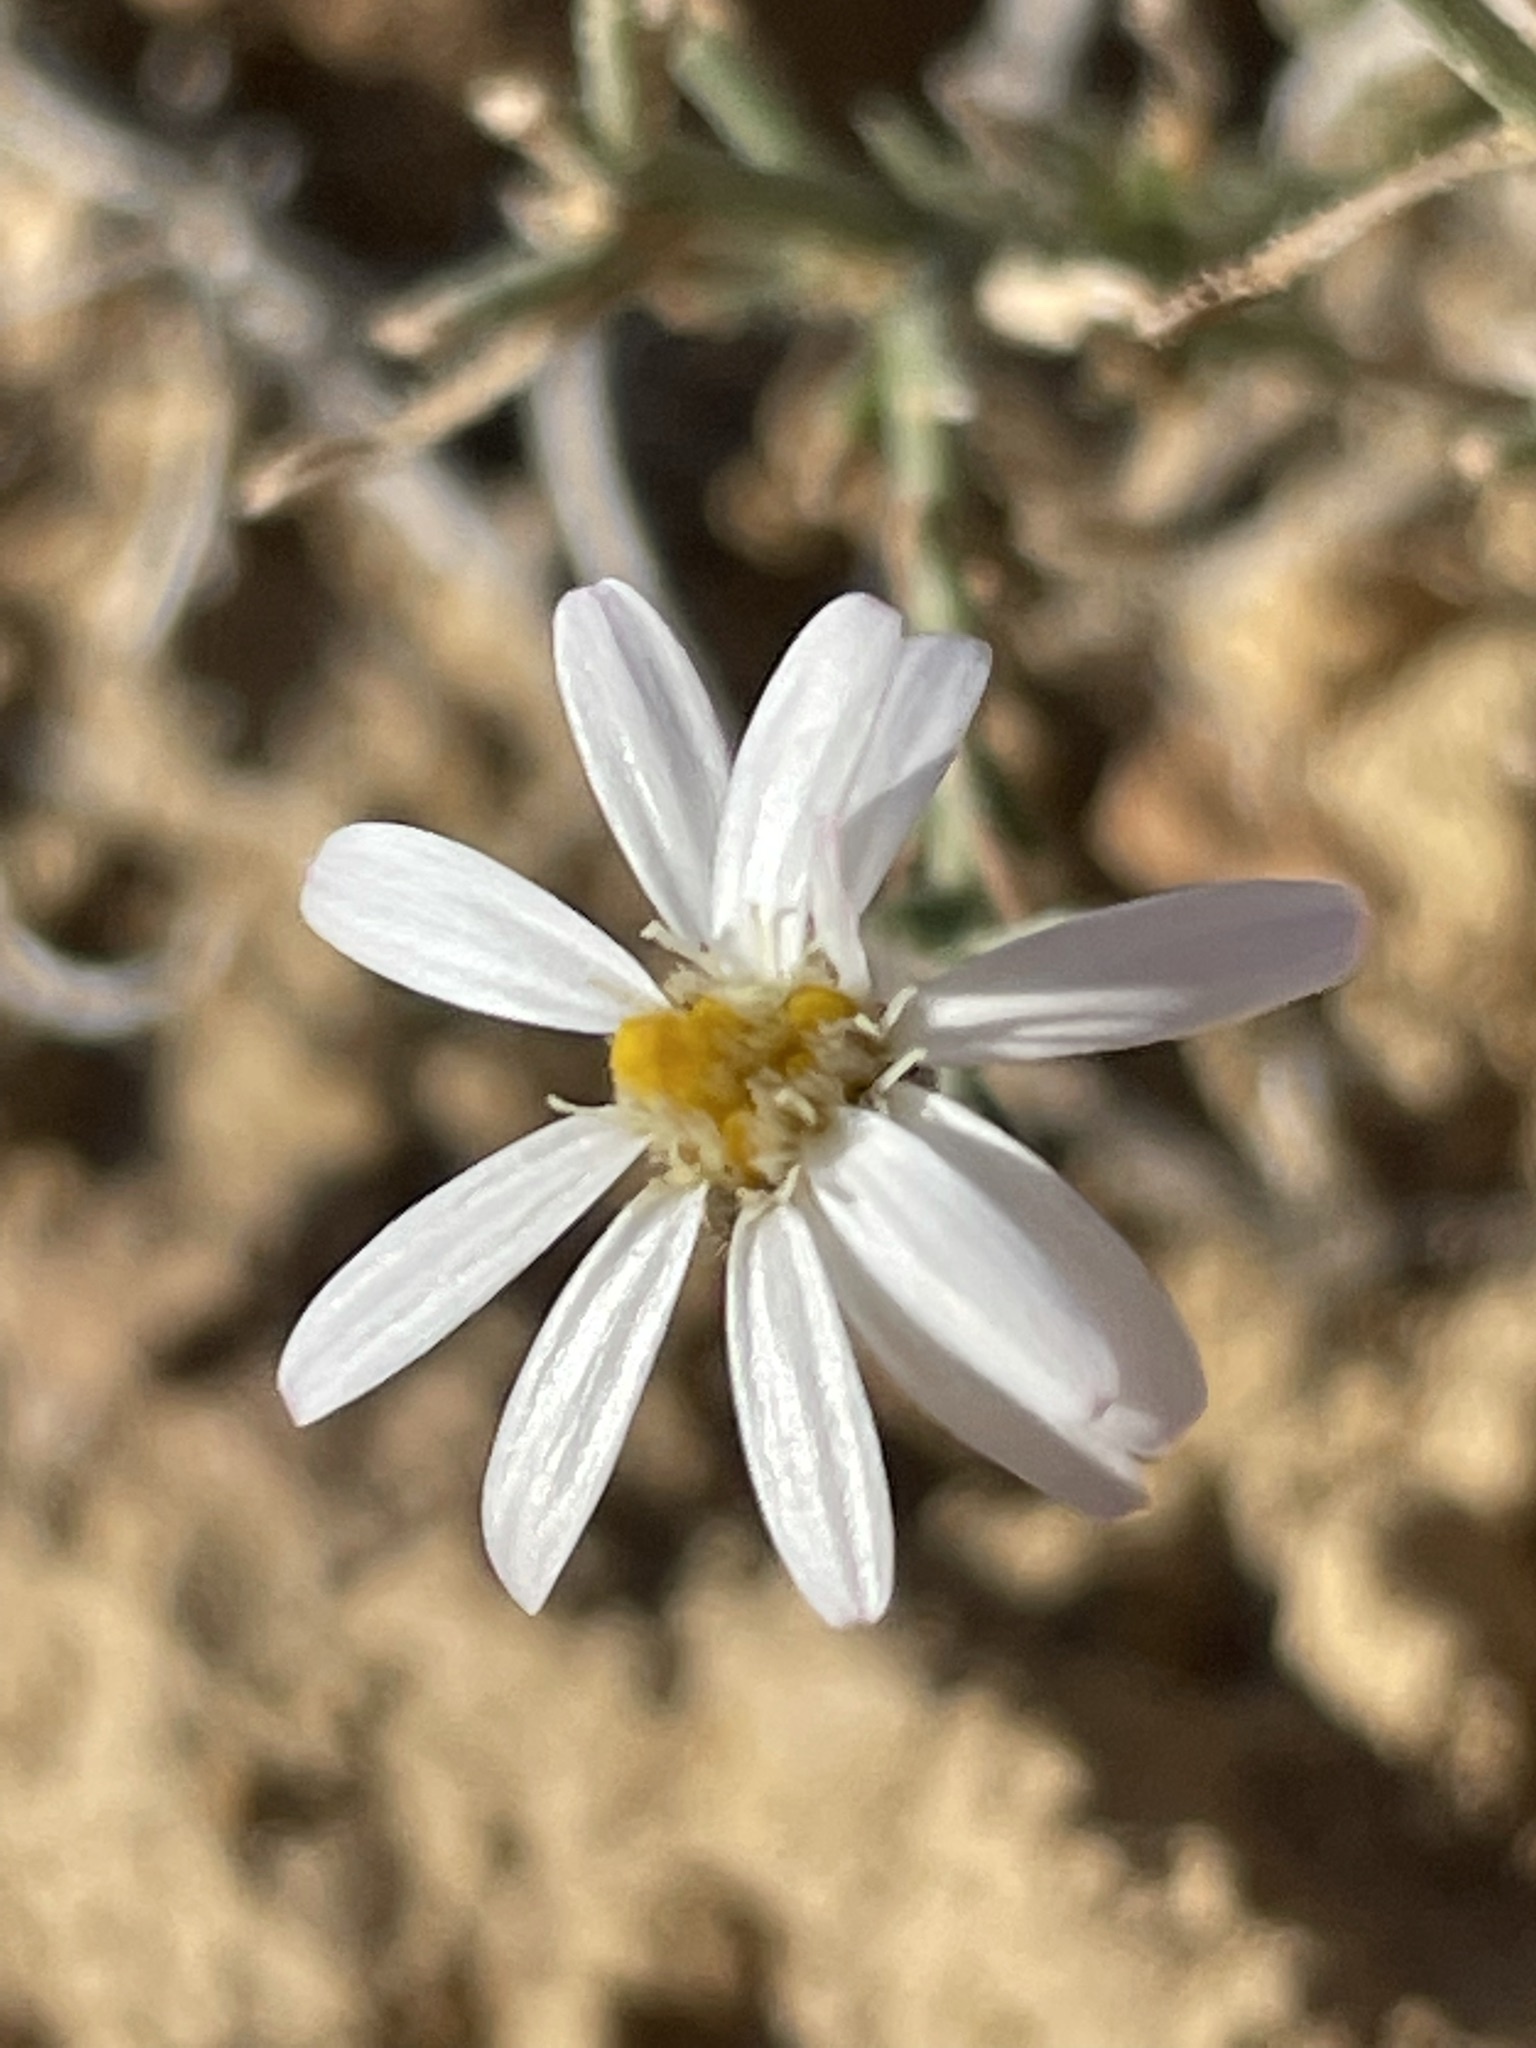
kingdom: Plantae
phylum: Tracheophyta
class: Magnoliopsida
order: Asterales
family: Asteraceae
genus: Chaetopappa
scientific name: Chaetopappa ericoides
